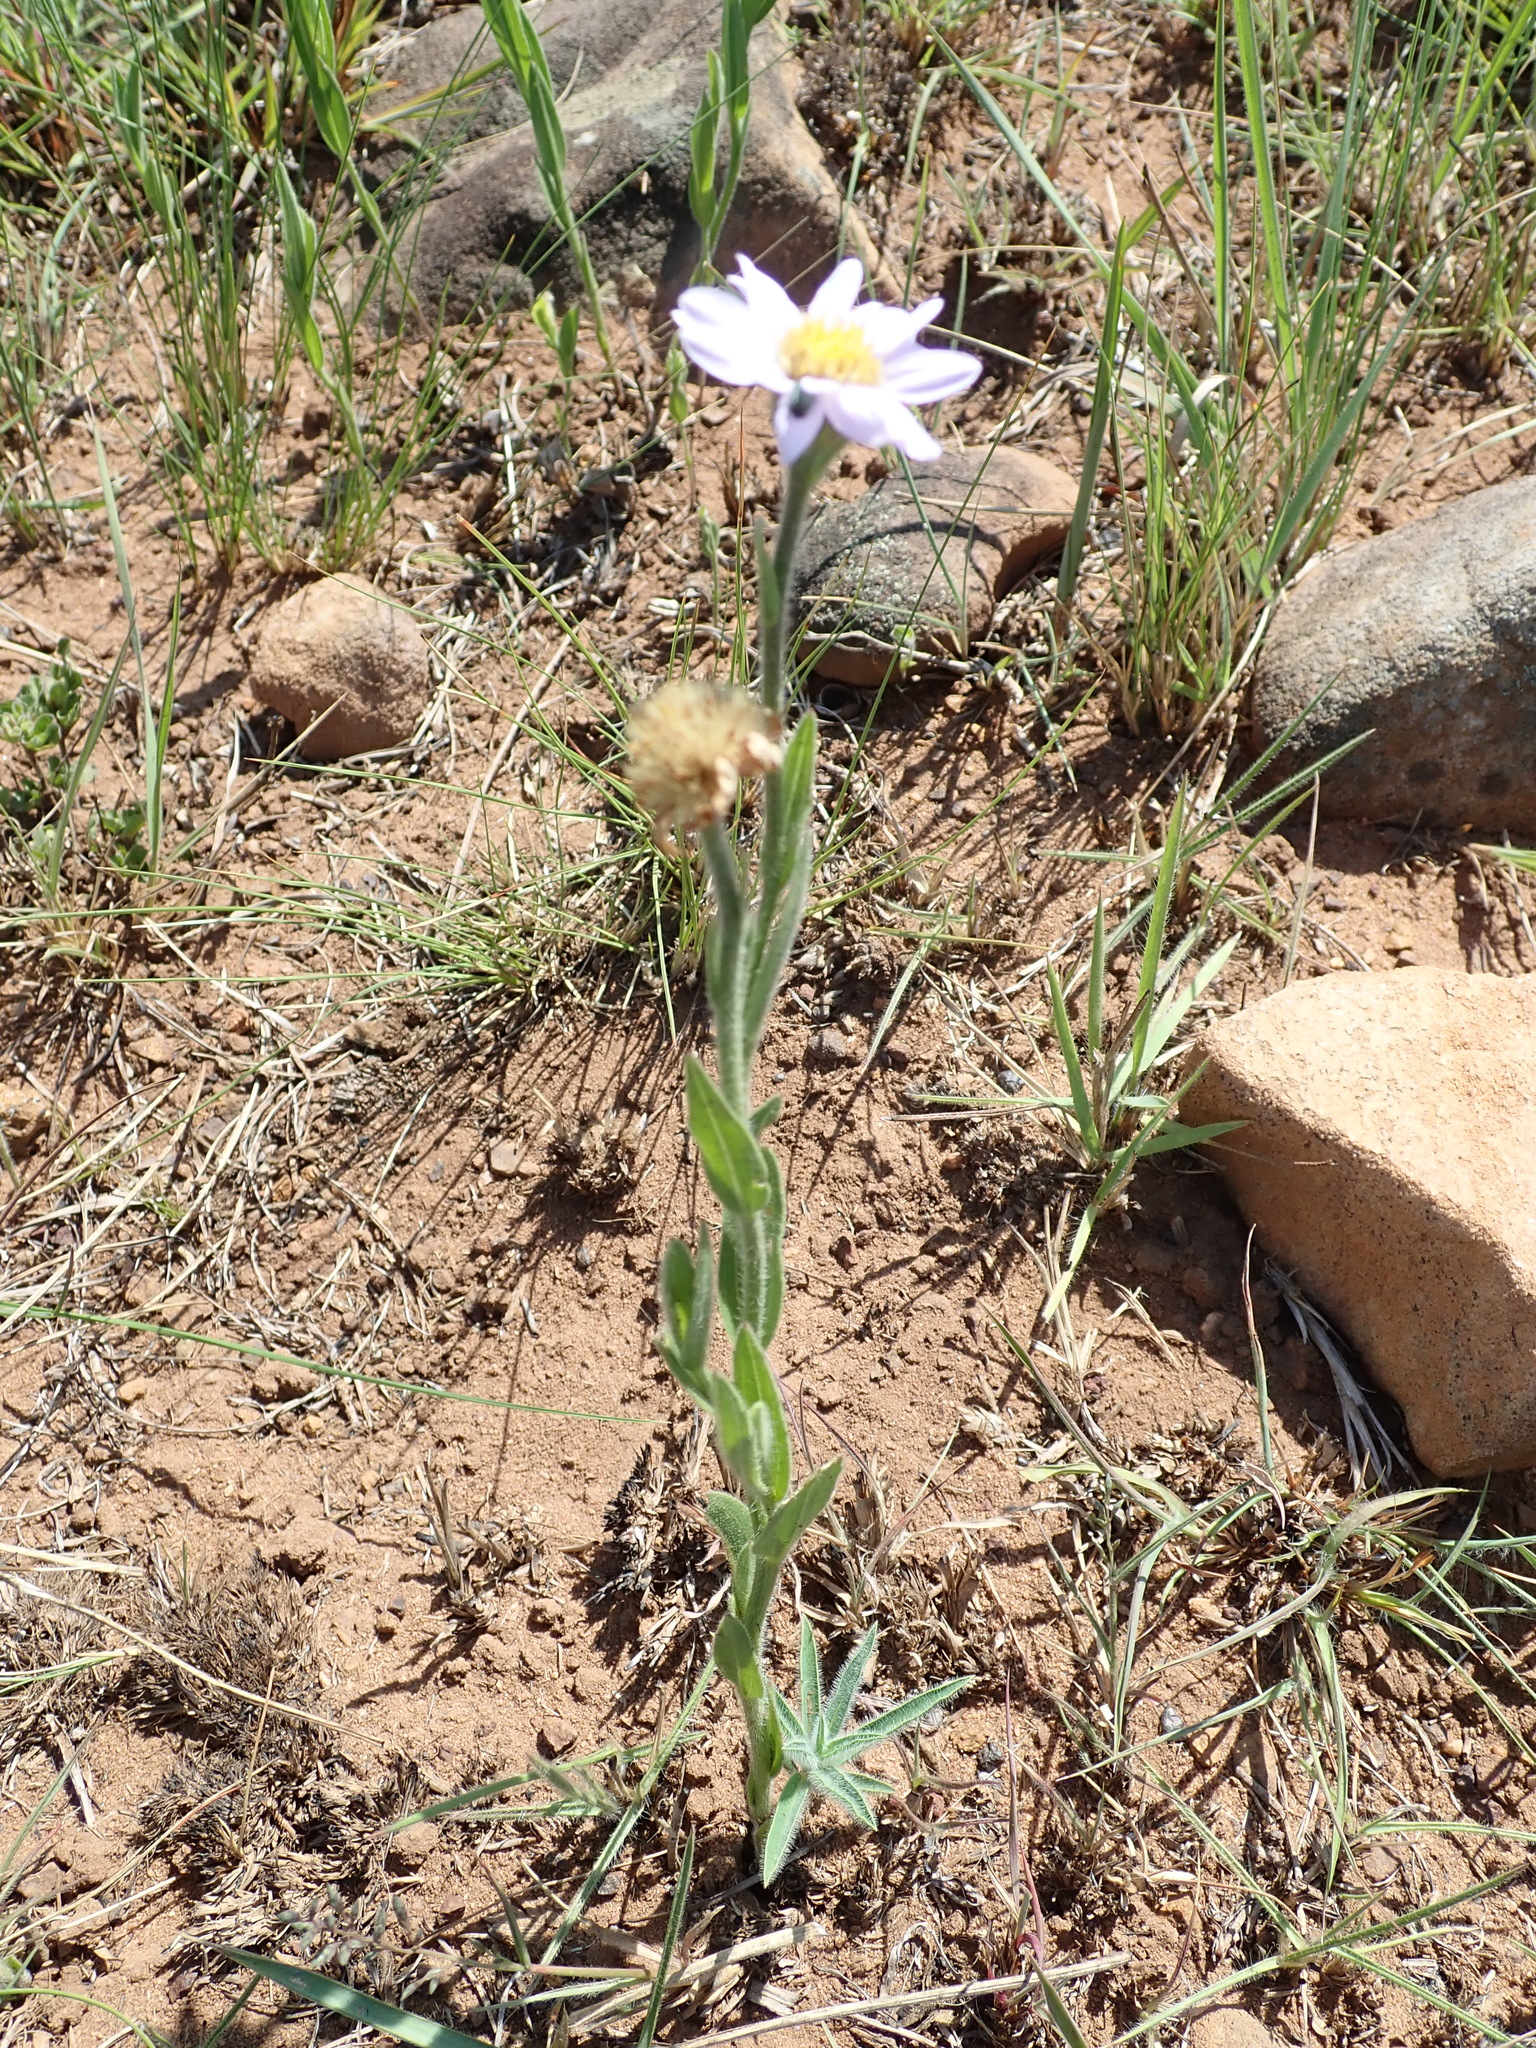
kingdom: Plantae
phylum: Tracheophyta
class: Magnoliopsida
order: Asterales
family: Asteraceae
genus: Afroaster
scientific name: Afroaster hispidus
